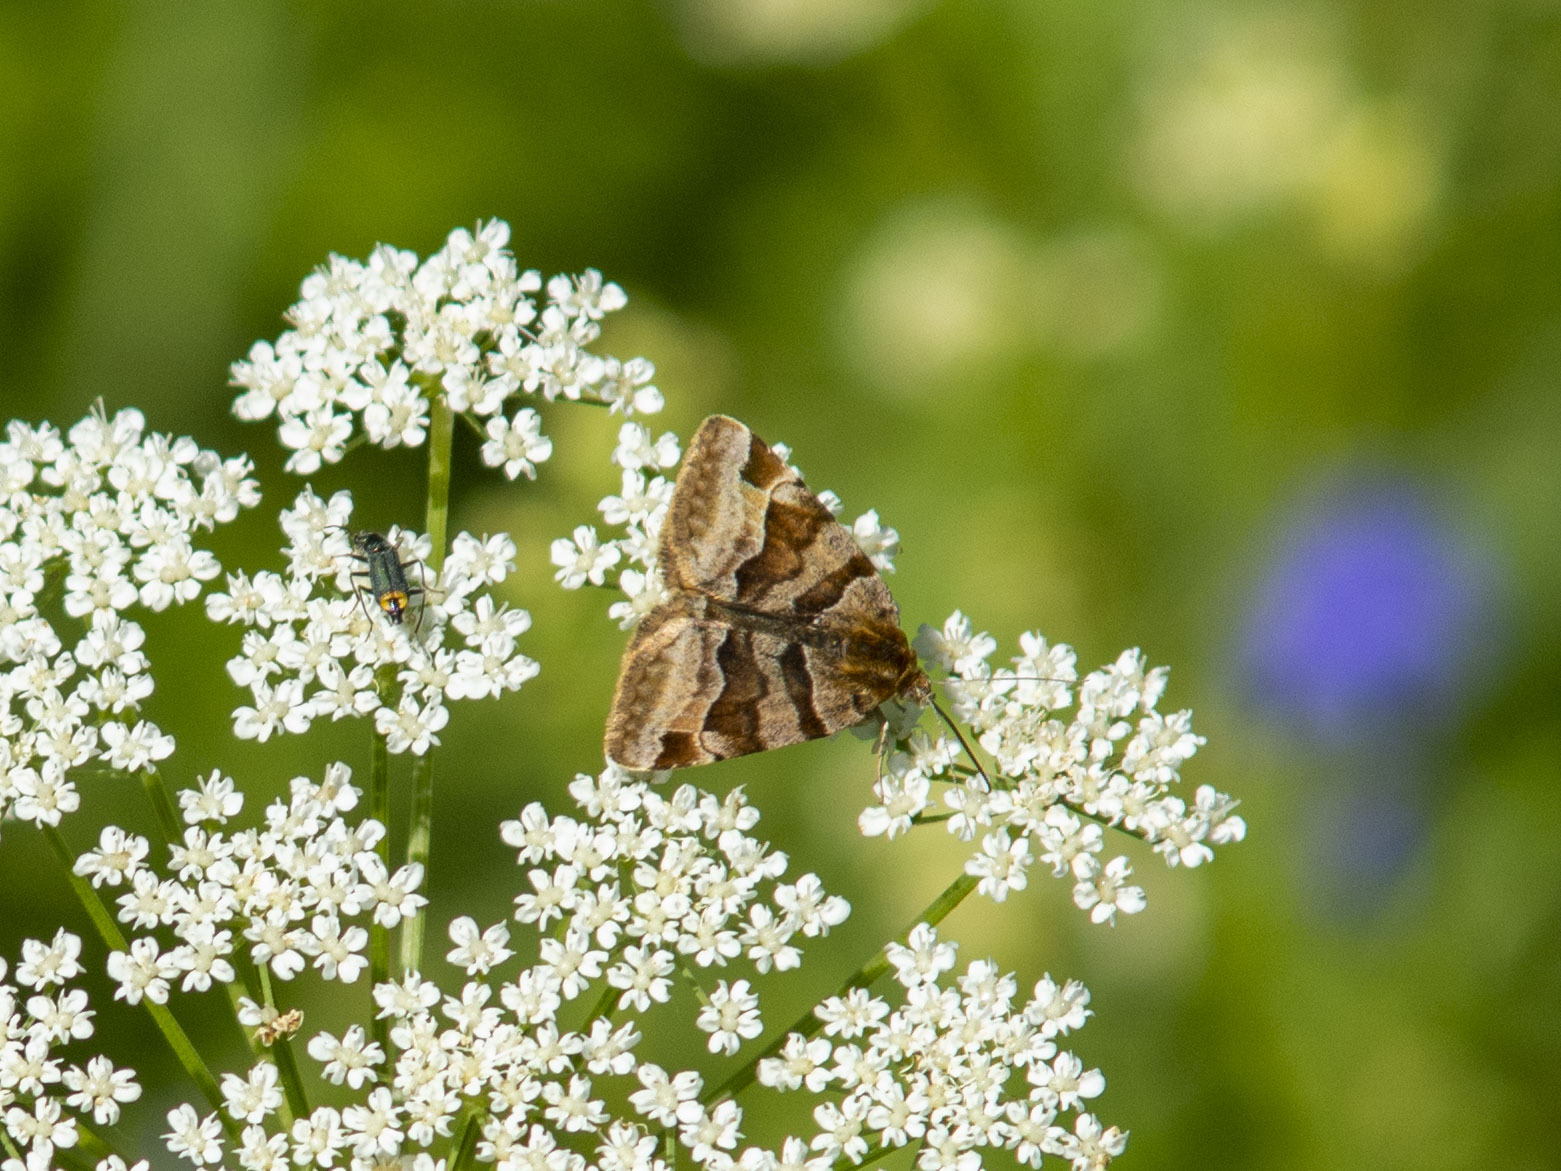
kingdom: Animalia
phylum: Arthropoda
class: Insecta
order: Lepidoptera
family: Erebidae
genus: Euclidia
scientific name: Euclidia glyphica
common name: Burnet companion
